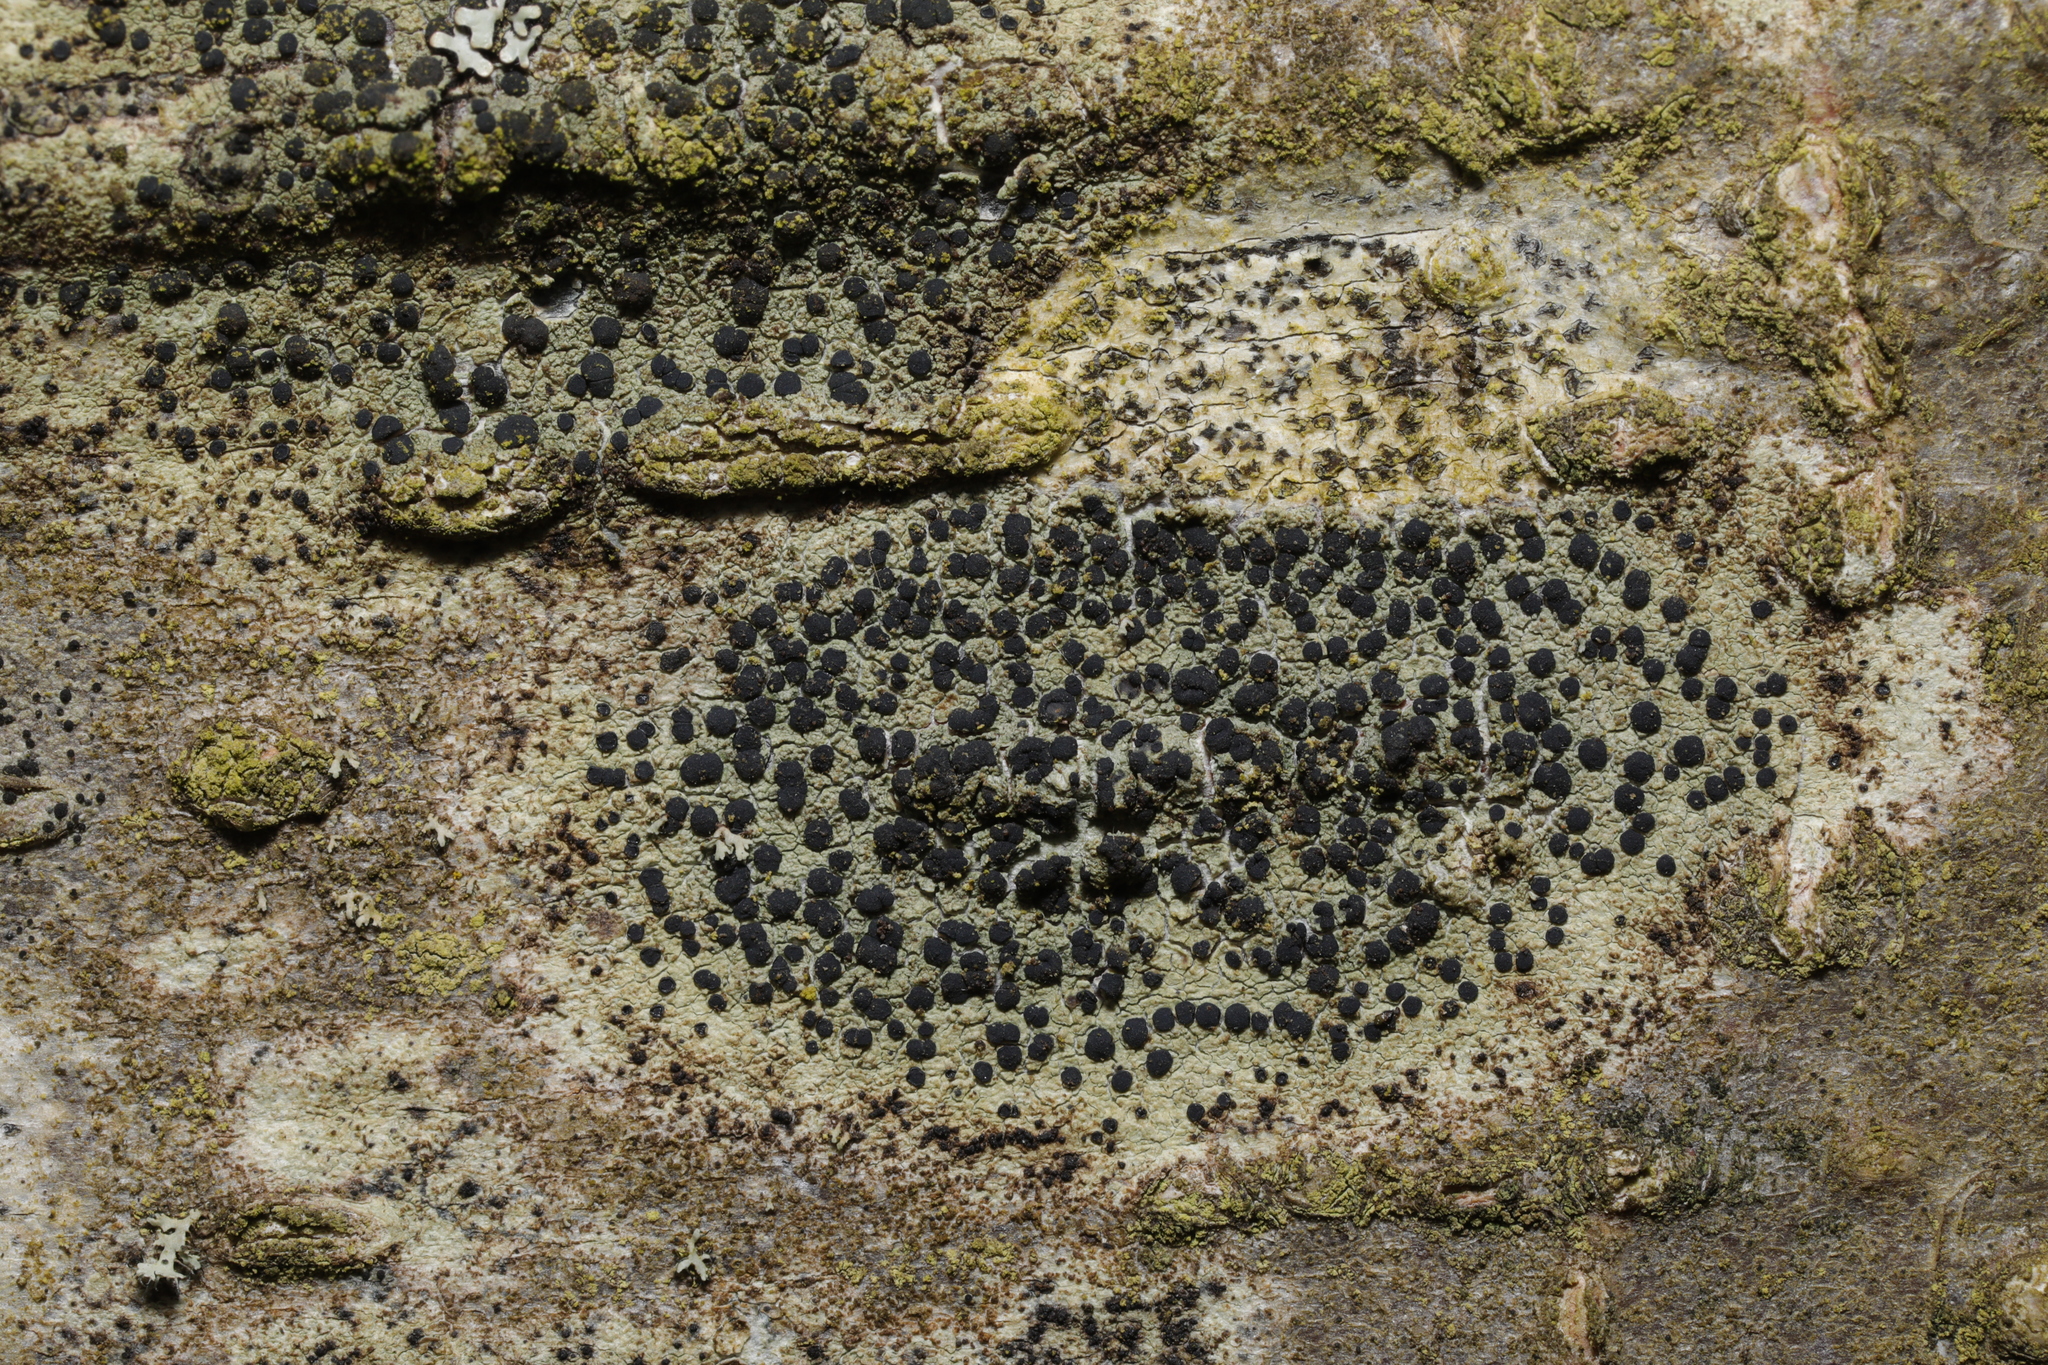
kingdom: Fungi
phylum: Ascomycota
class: Lecanoromycetes
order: Lecanorales
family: Lecanoraceae
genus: Lecidella
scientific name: Lecidella elaeochroma
